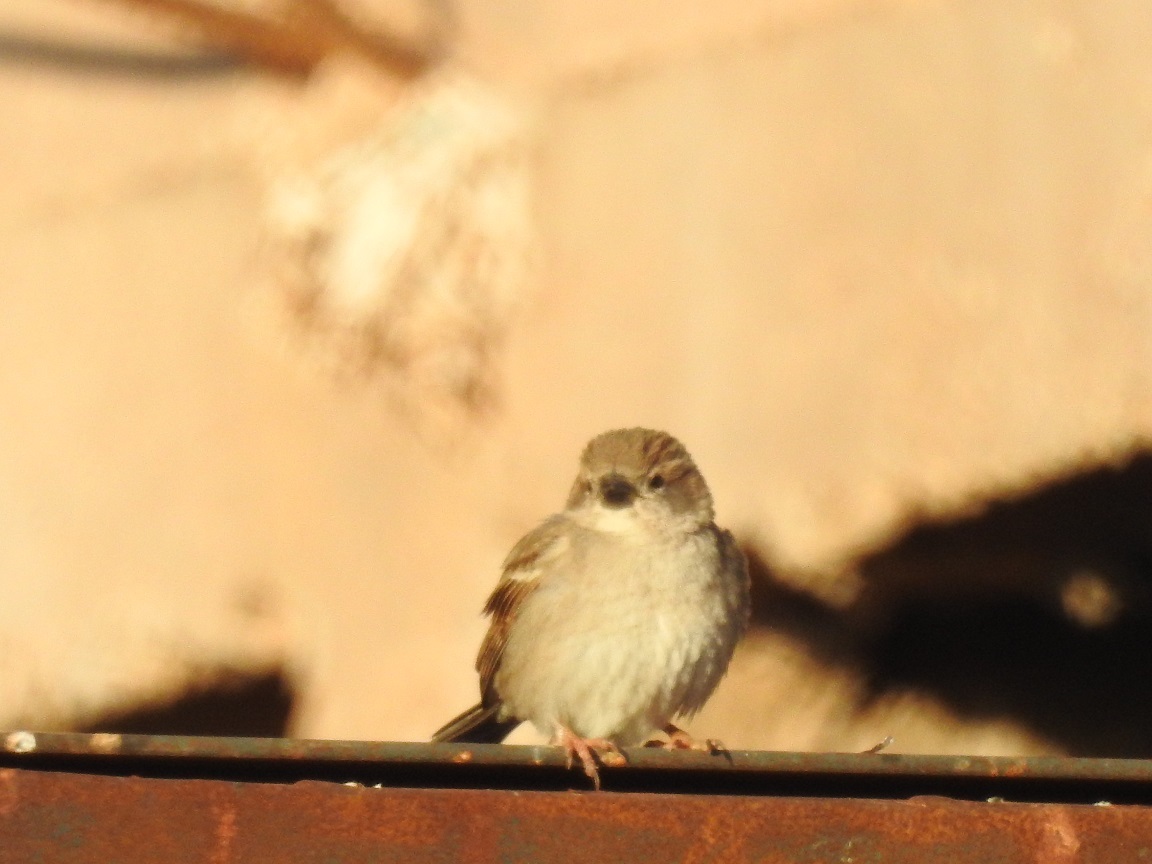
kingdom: Animalia
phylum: Chordata
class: Aves
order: Passeriformes
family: Passeridae
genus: Passer
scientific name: Passer domesticus
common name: House sparrow
